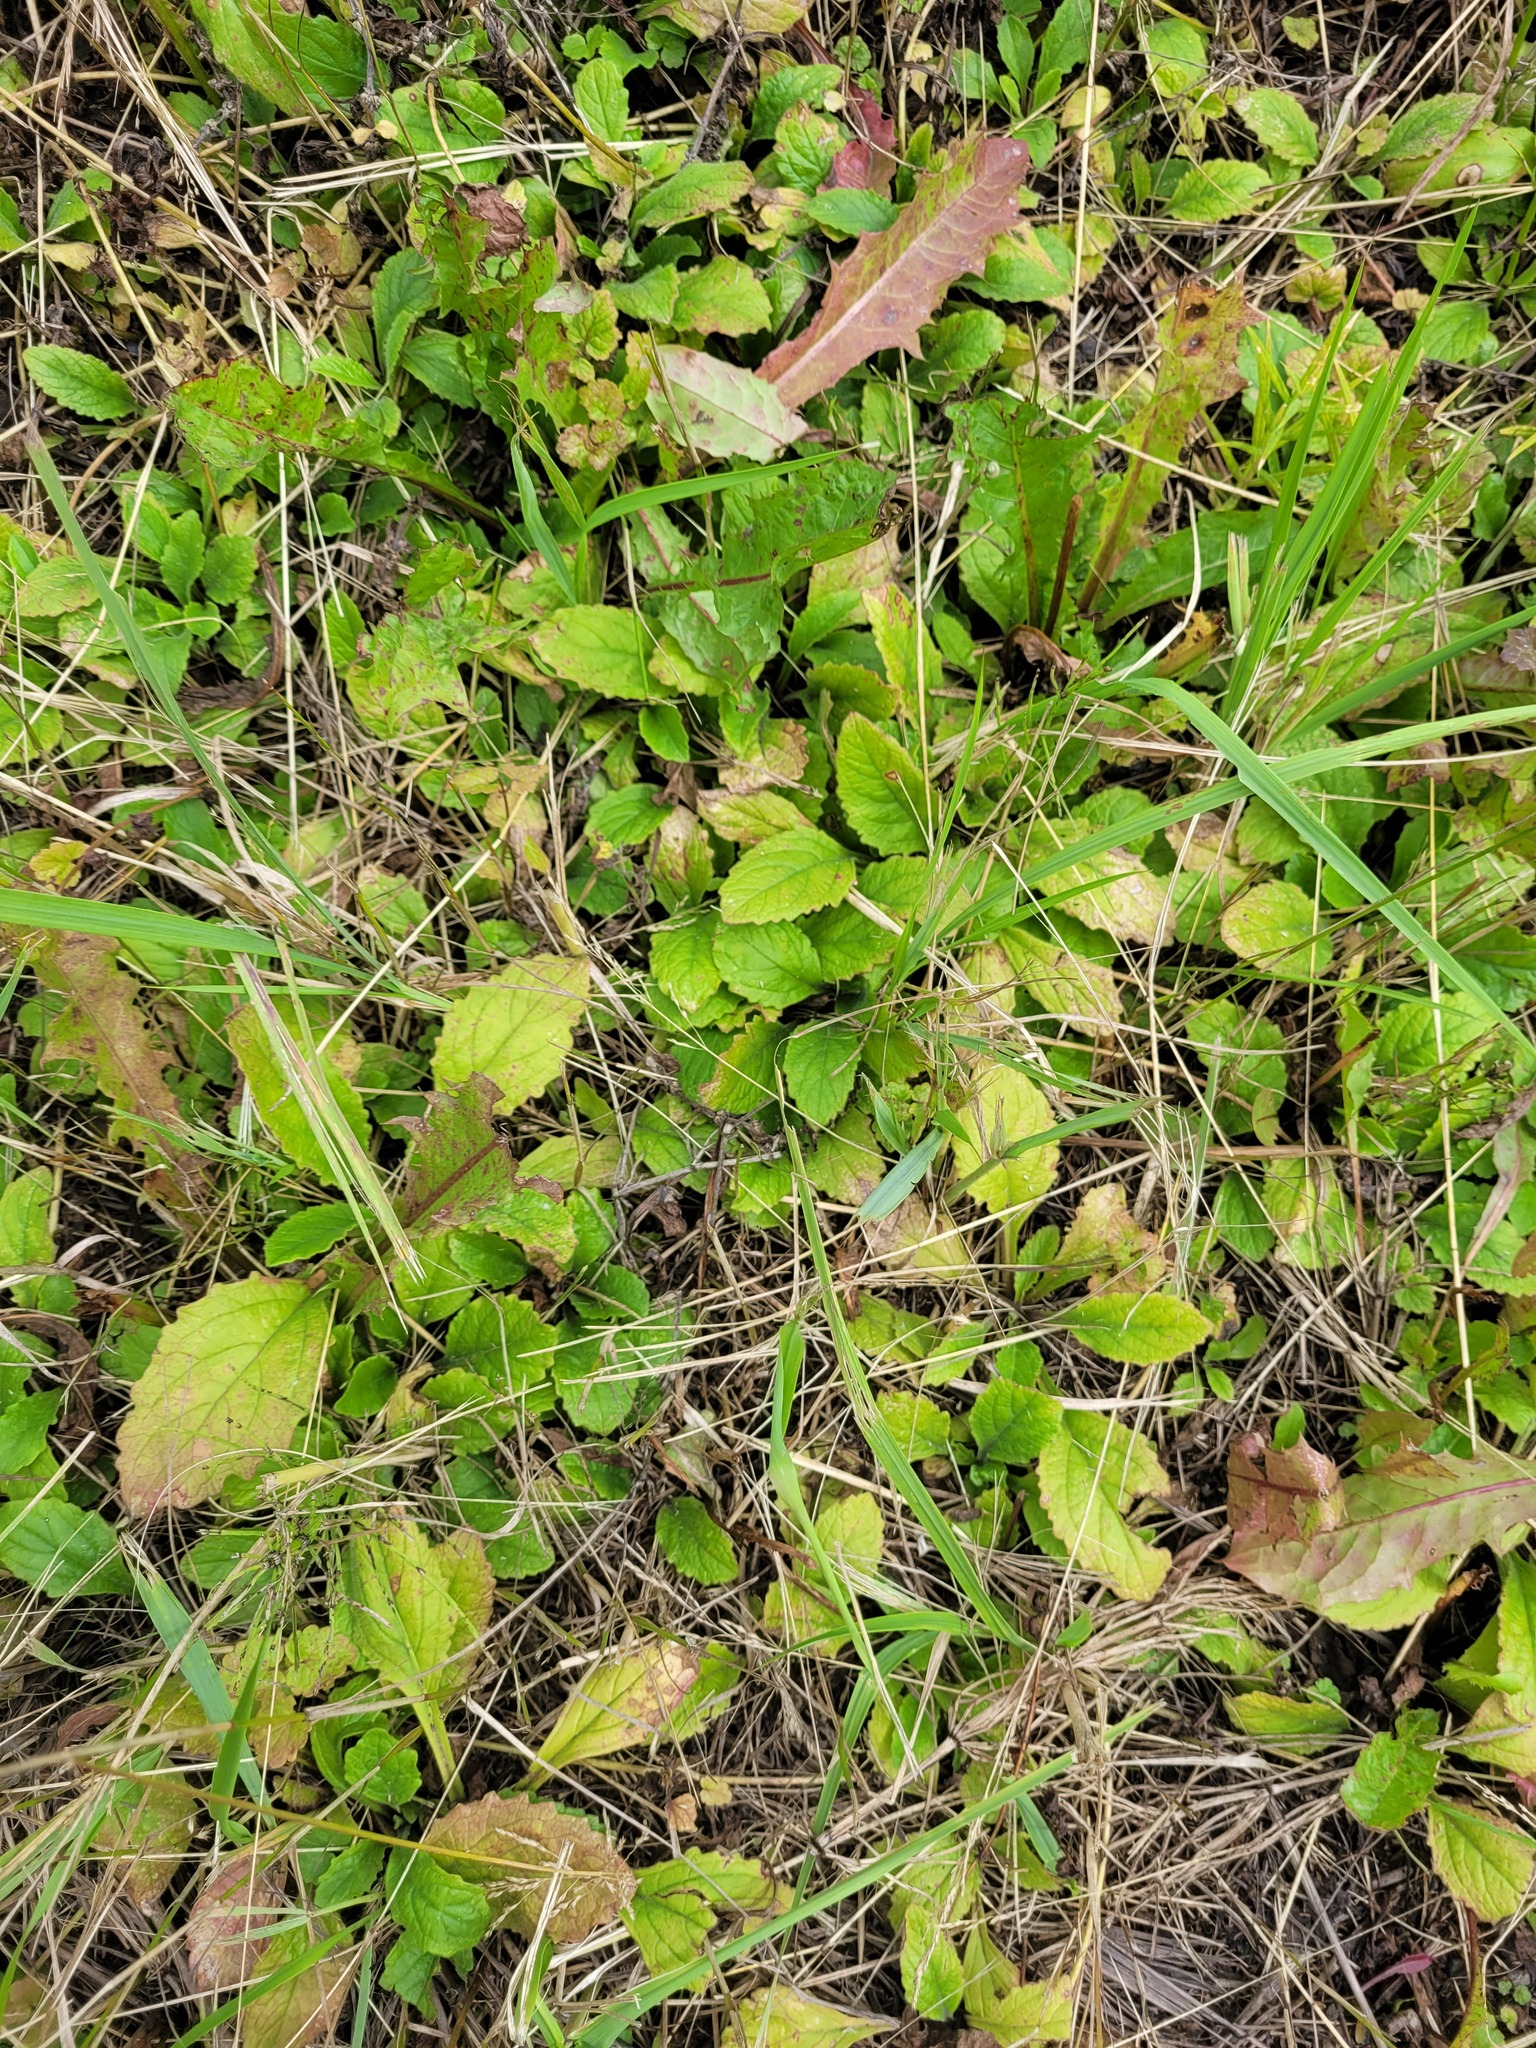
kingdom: Plantae
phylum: Tracheophyta
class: Magnoliopsida
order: Lamiales
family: Lamiaceae
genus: Ajuga
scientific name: Ajuga reptans
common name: Bugle
